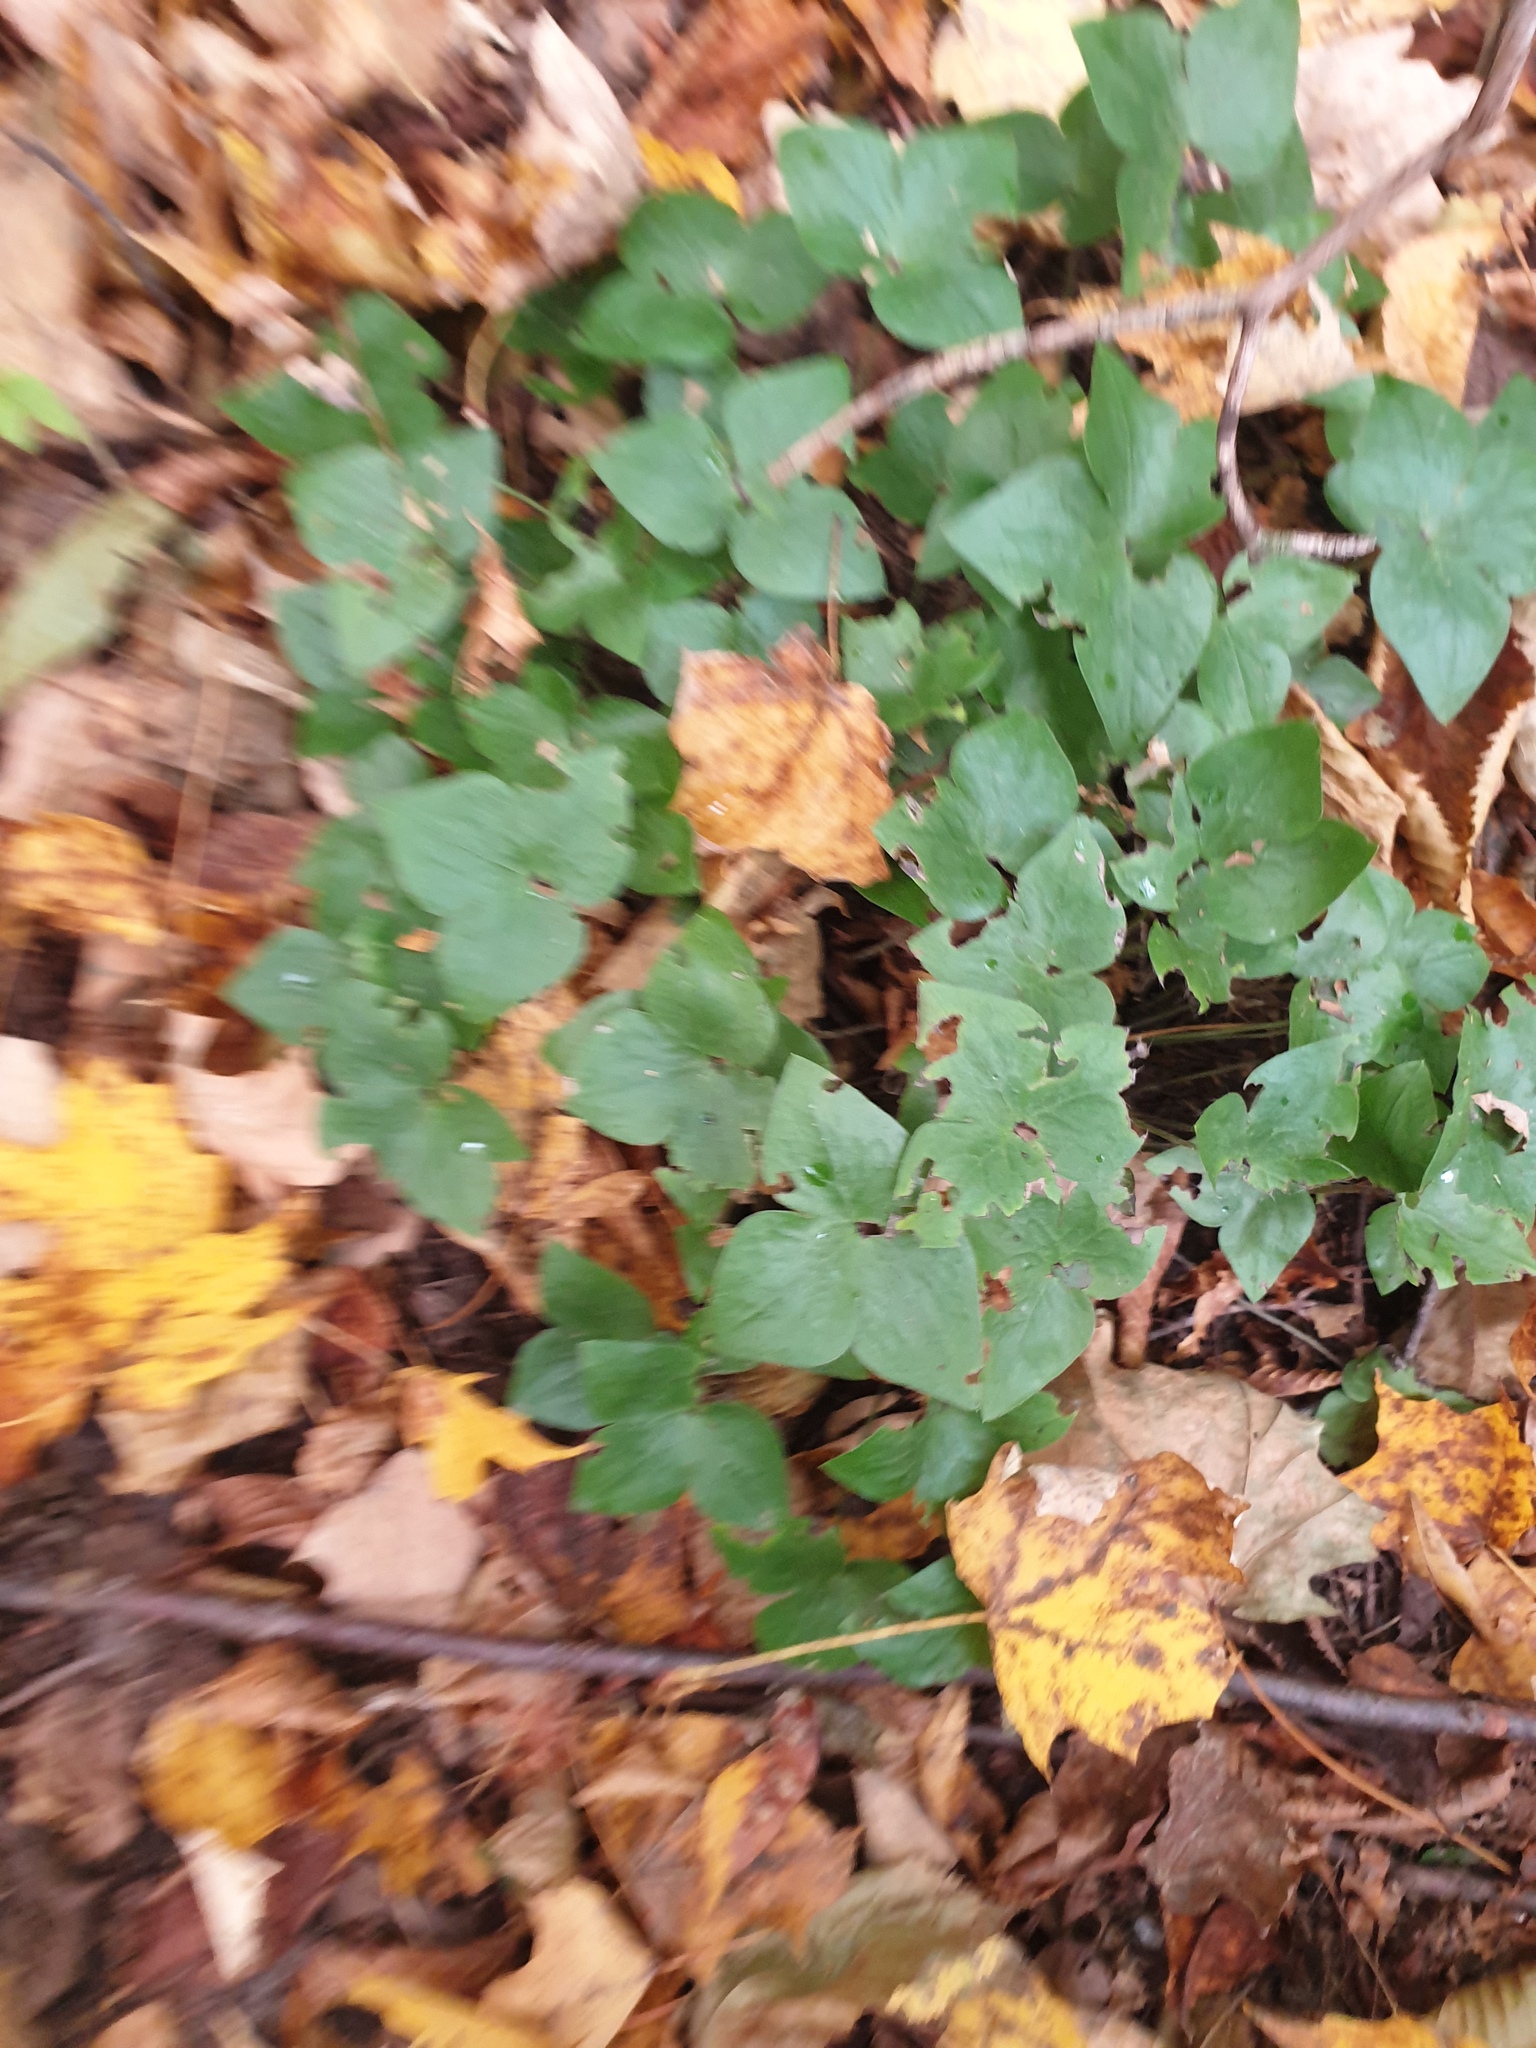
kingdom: Plantae
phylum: Tracheophyta
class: Magnoliopsida
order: Ranunculales
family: Ranunculaceae
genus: Hepatica
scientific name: Hepatica acutiloba
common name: Sharp-lobed hepatica
